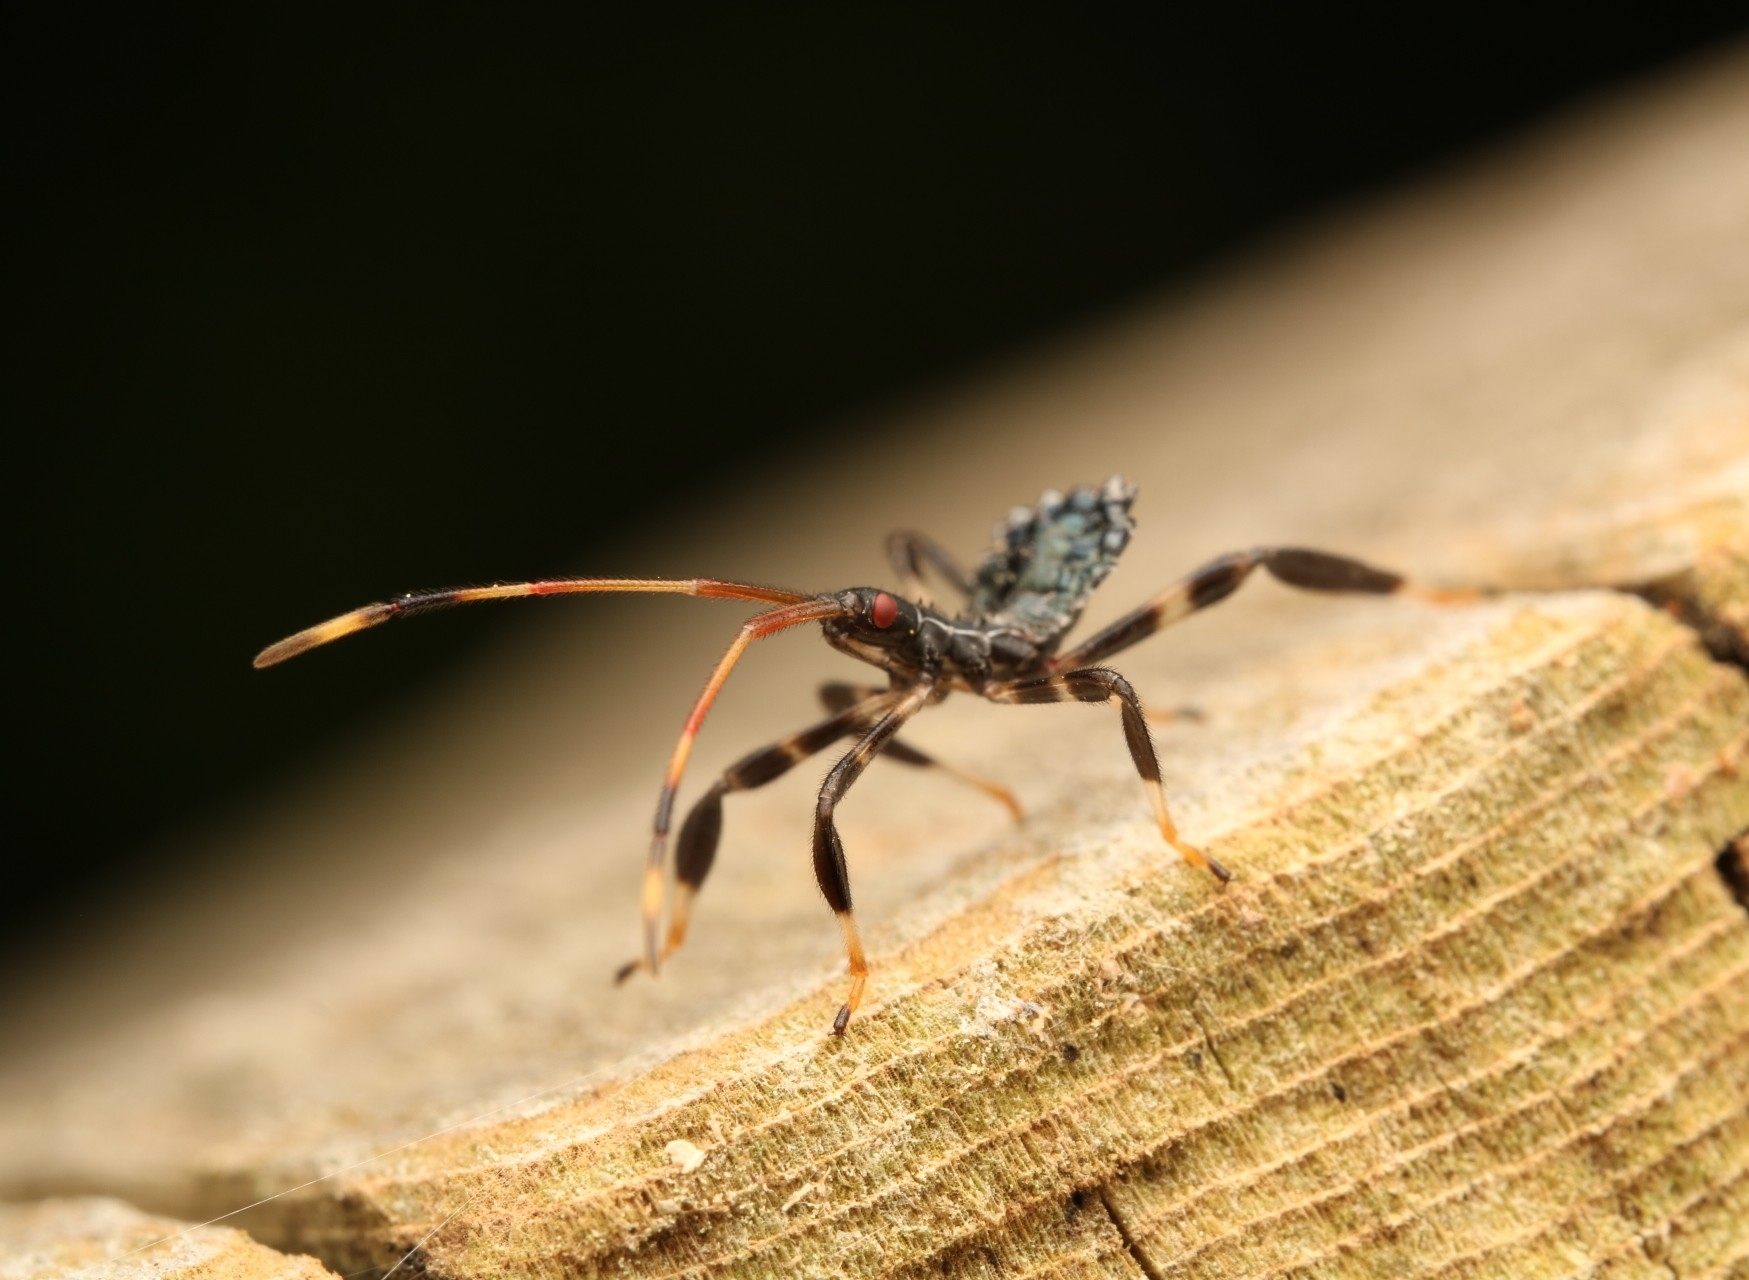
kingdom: Animalia
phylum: Arthropoda
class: Insecta
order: Hemiptera
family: Coreidae
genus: Acanthocephala
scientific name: Acanthocephala terminalis
